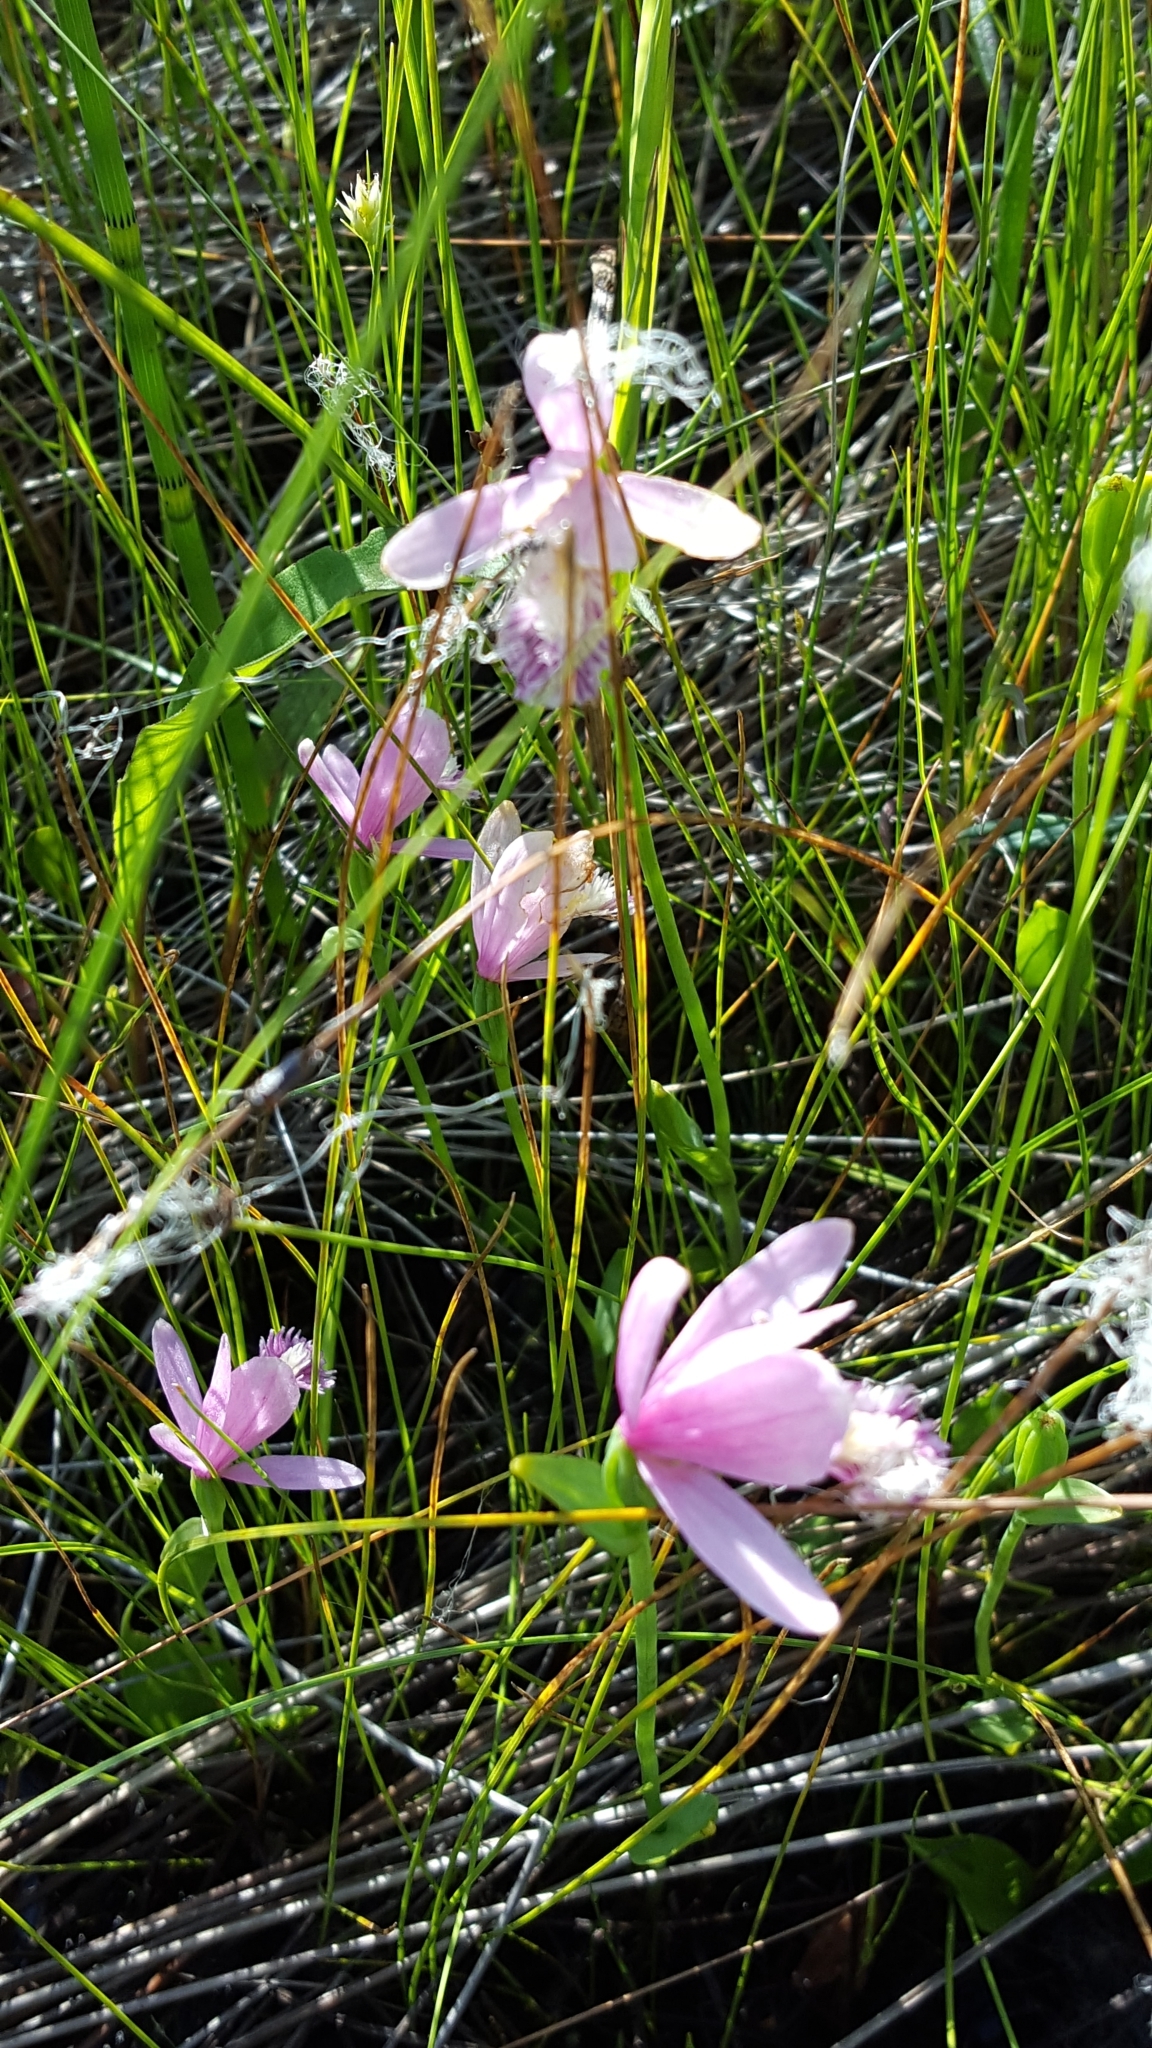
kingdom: Plantae
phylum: Tracheophyta
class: Liliopsida
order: Asparagales
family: Orchidaceae
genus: Pogonia
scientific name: Pogonia ophioglossoides
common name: Rose pogonia
